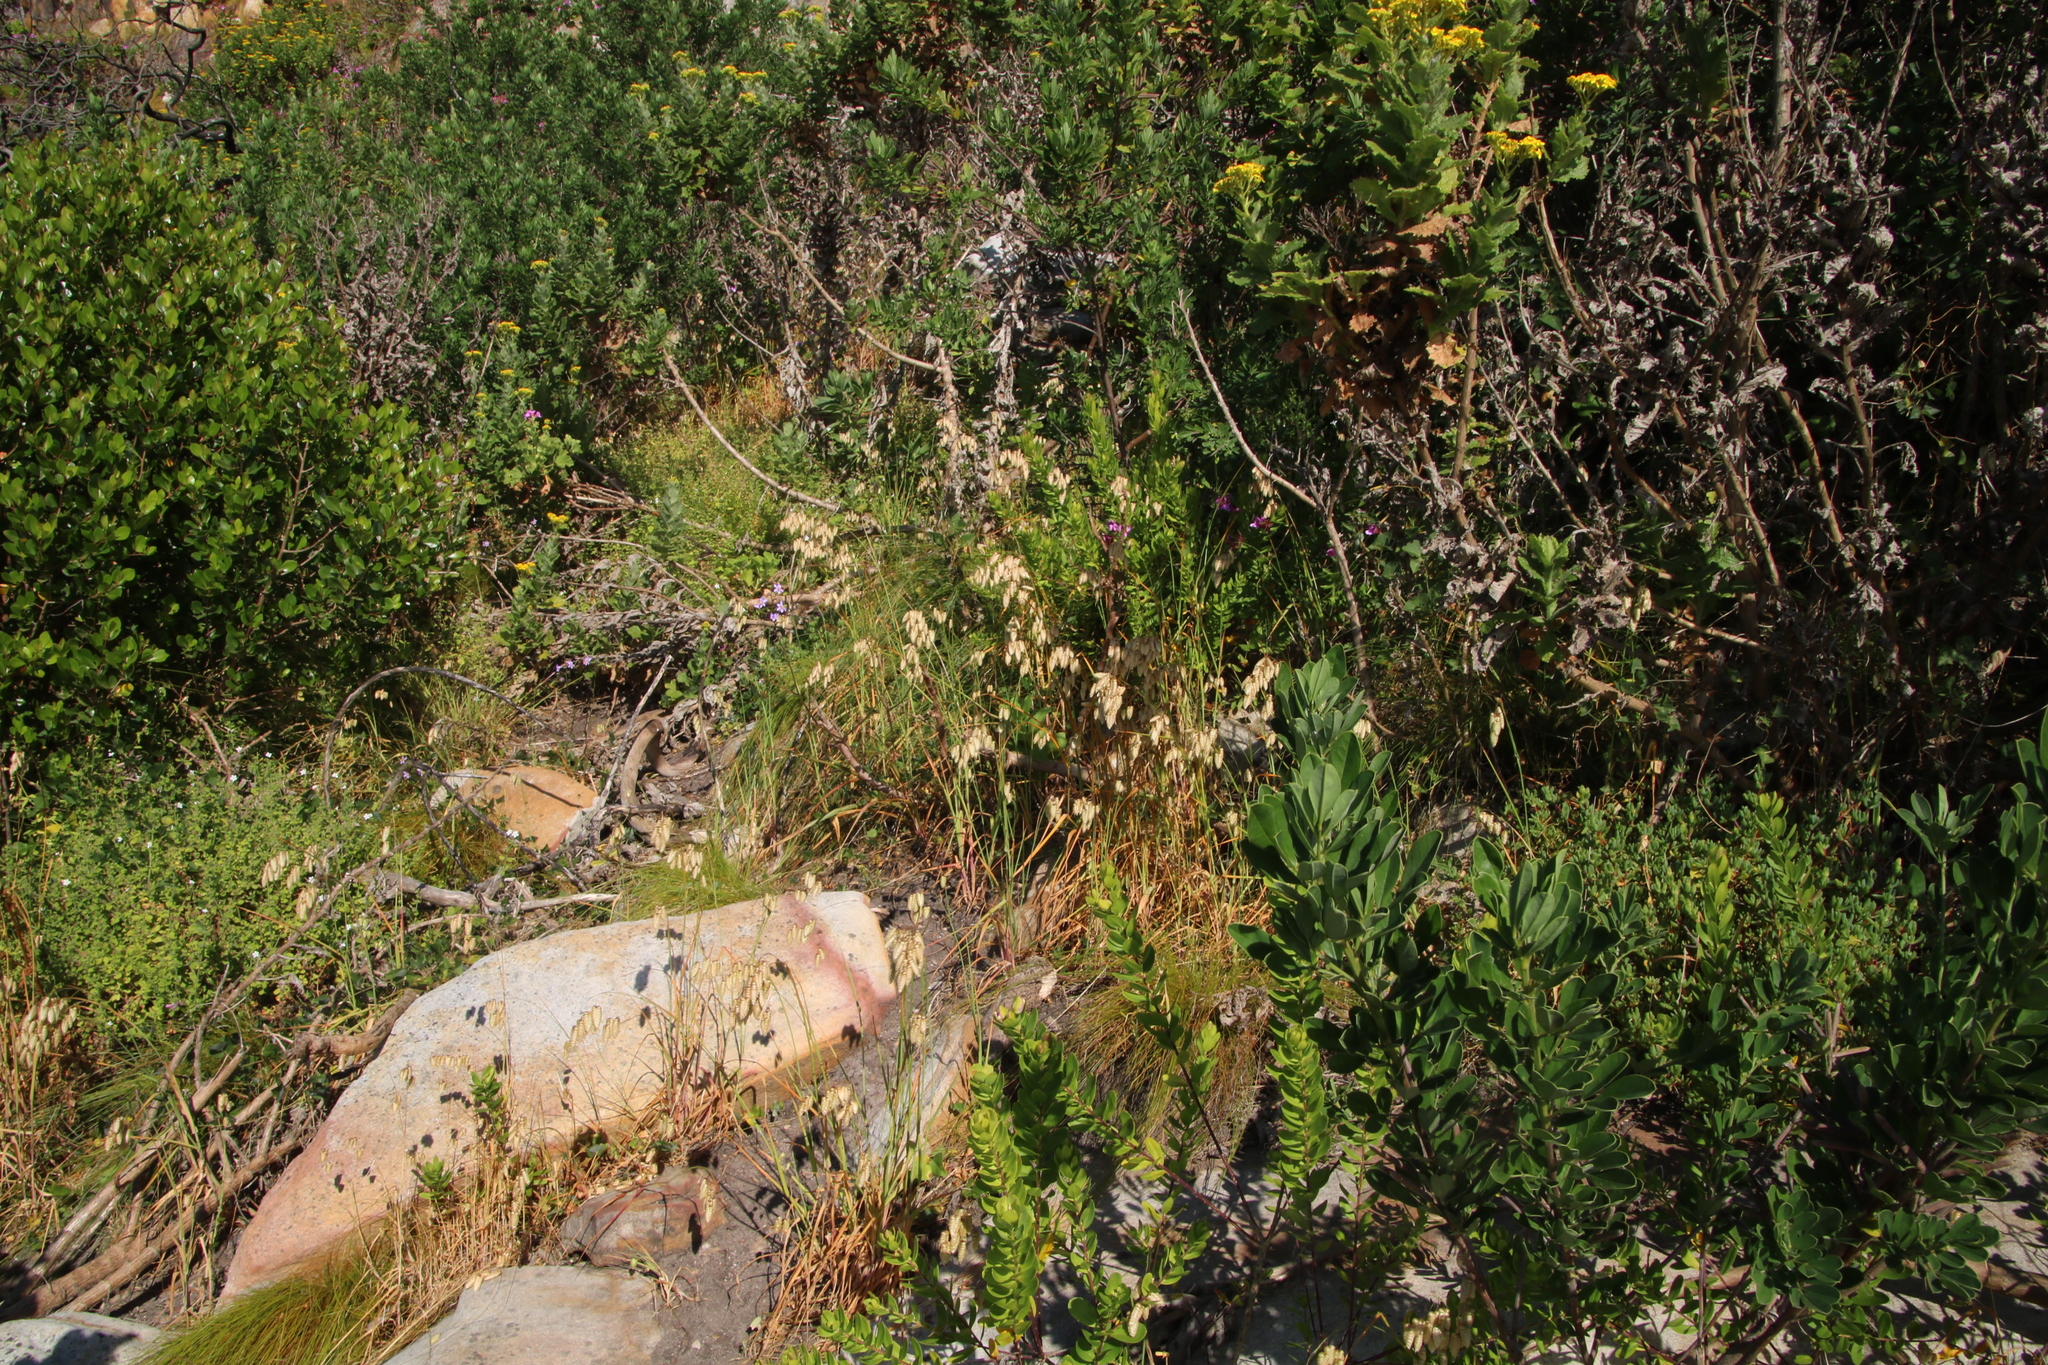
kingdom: Plantae
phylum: Tracheophyta
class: Liliopsida
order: Poales
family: Poaceae
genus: Briza
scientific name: Briza maxima
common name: Big quakinggrass
